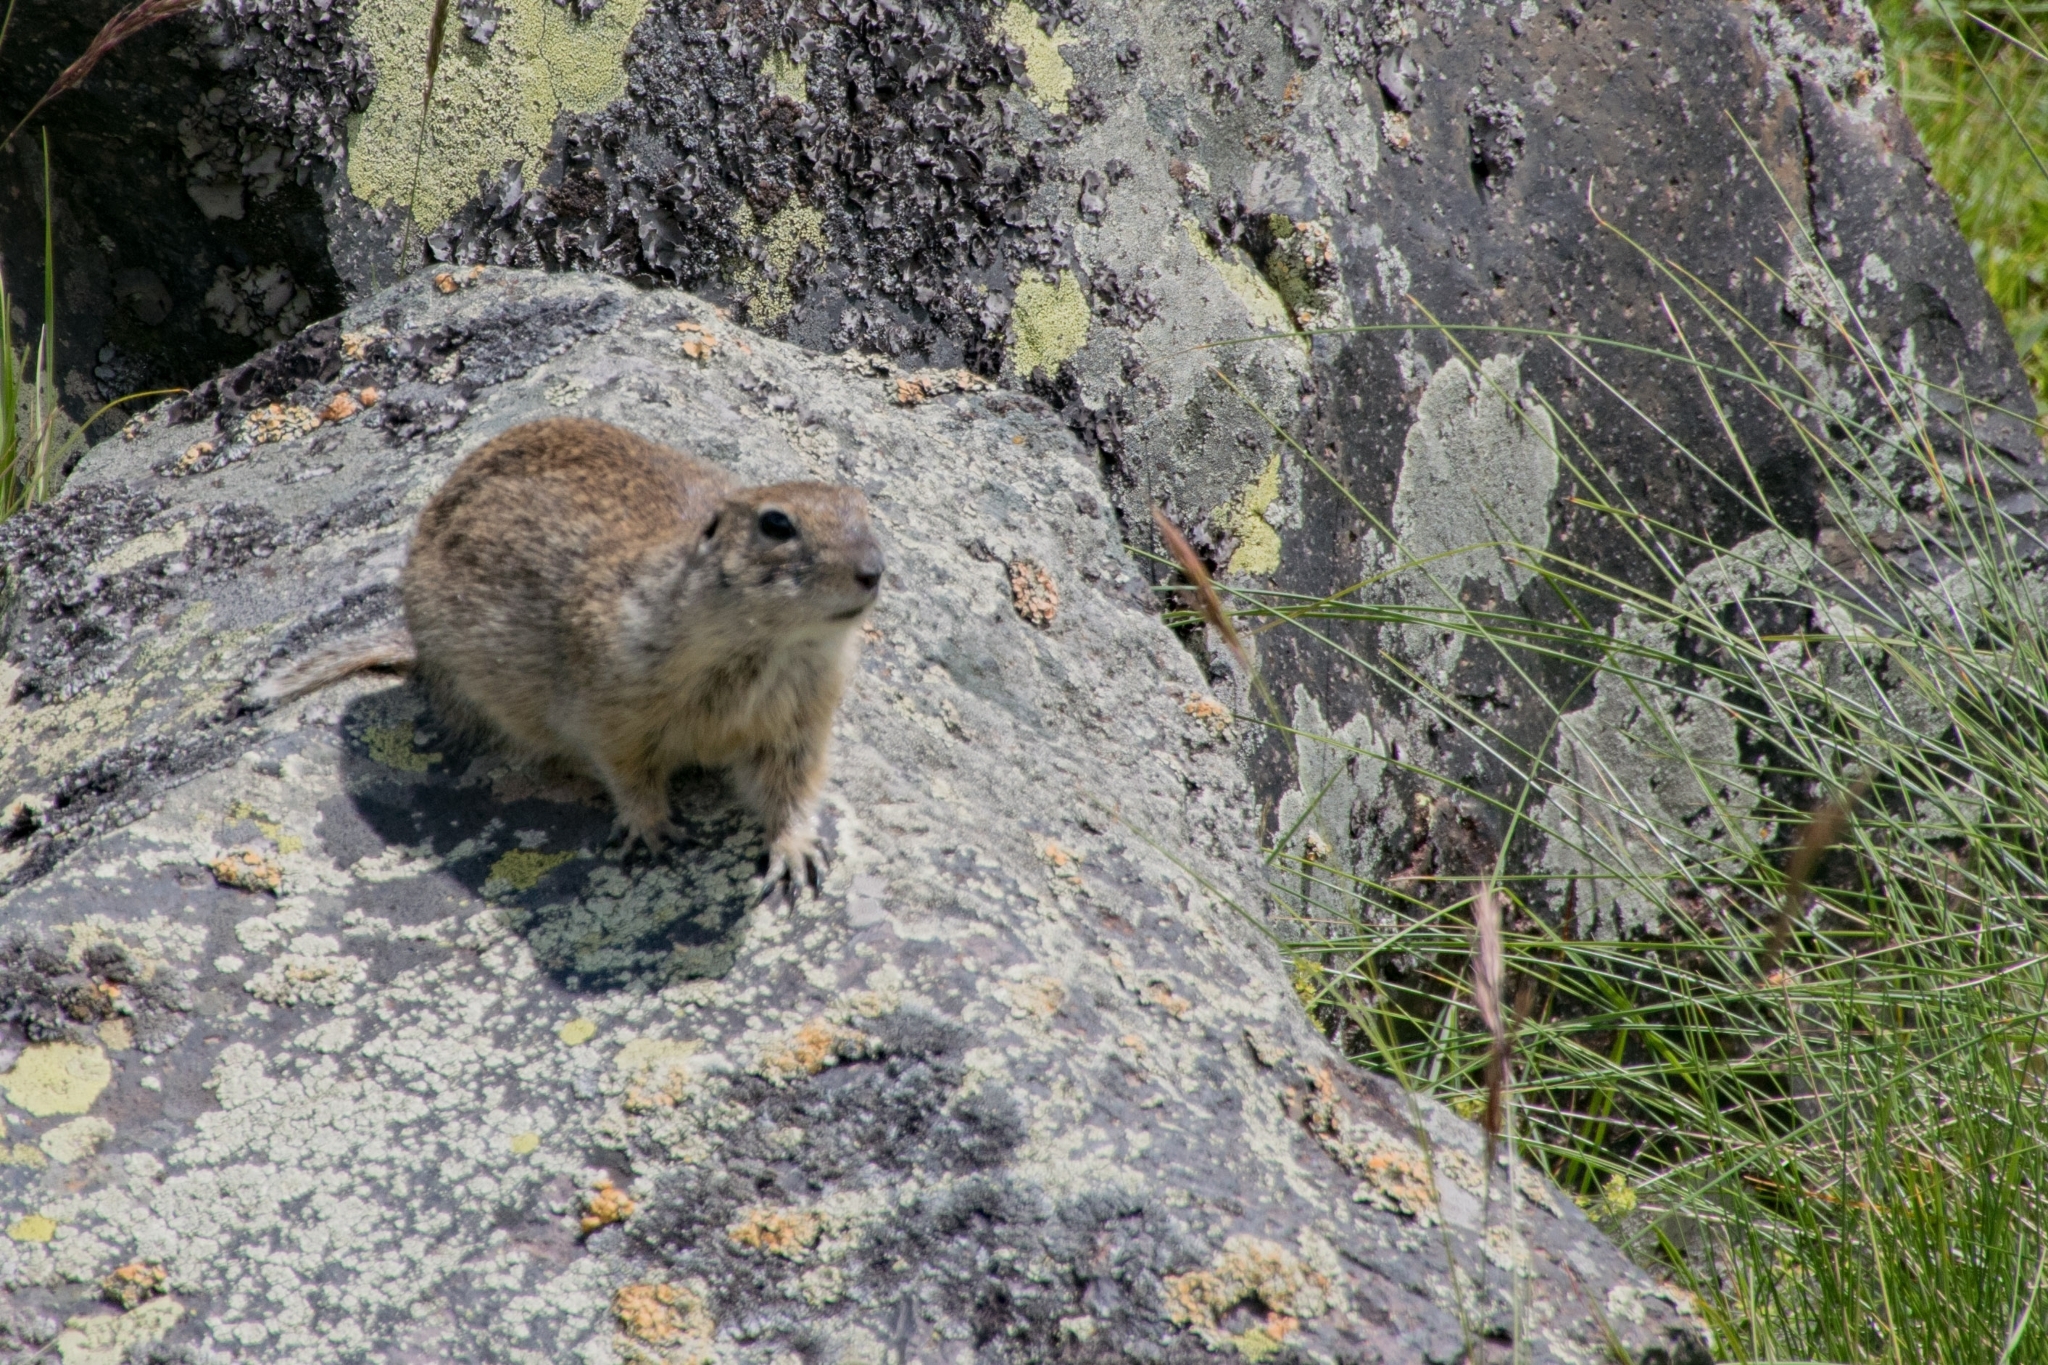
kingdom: Animalia
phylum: Chordata
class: Mammalia
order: Rodentia
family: Sciuridae
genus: Spermophilus
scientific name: Spermophilus musicus
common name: Caucasian mountain ground squirrel
